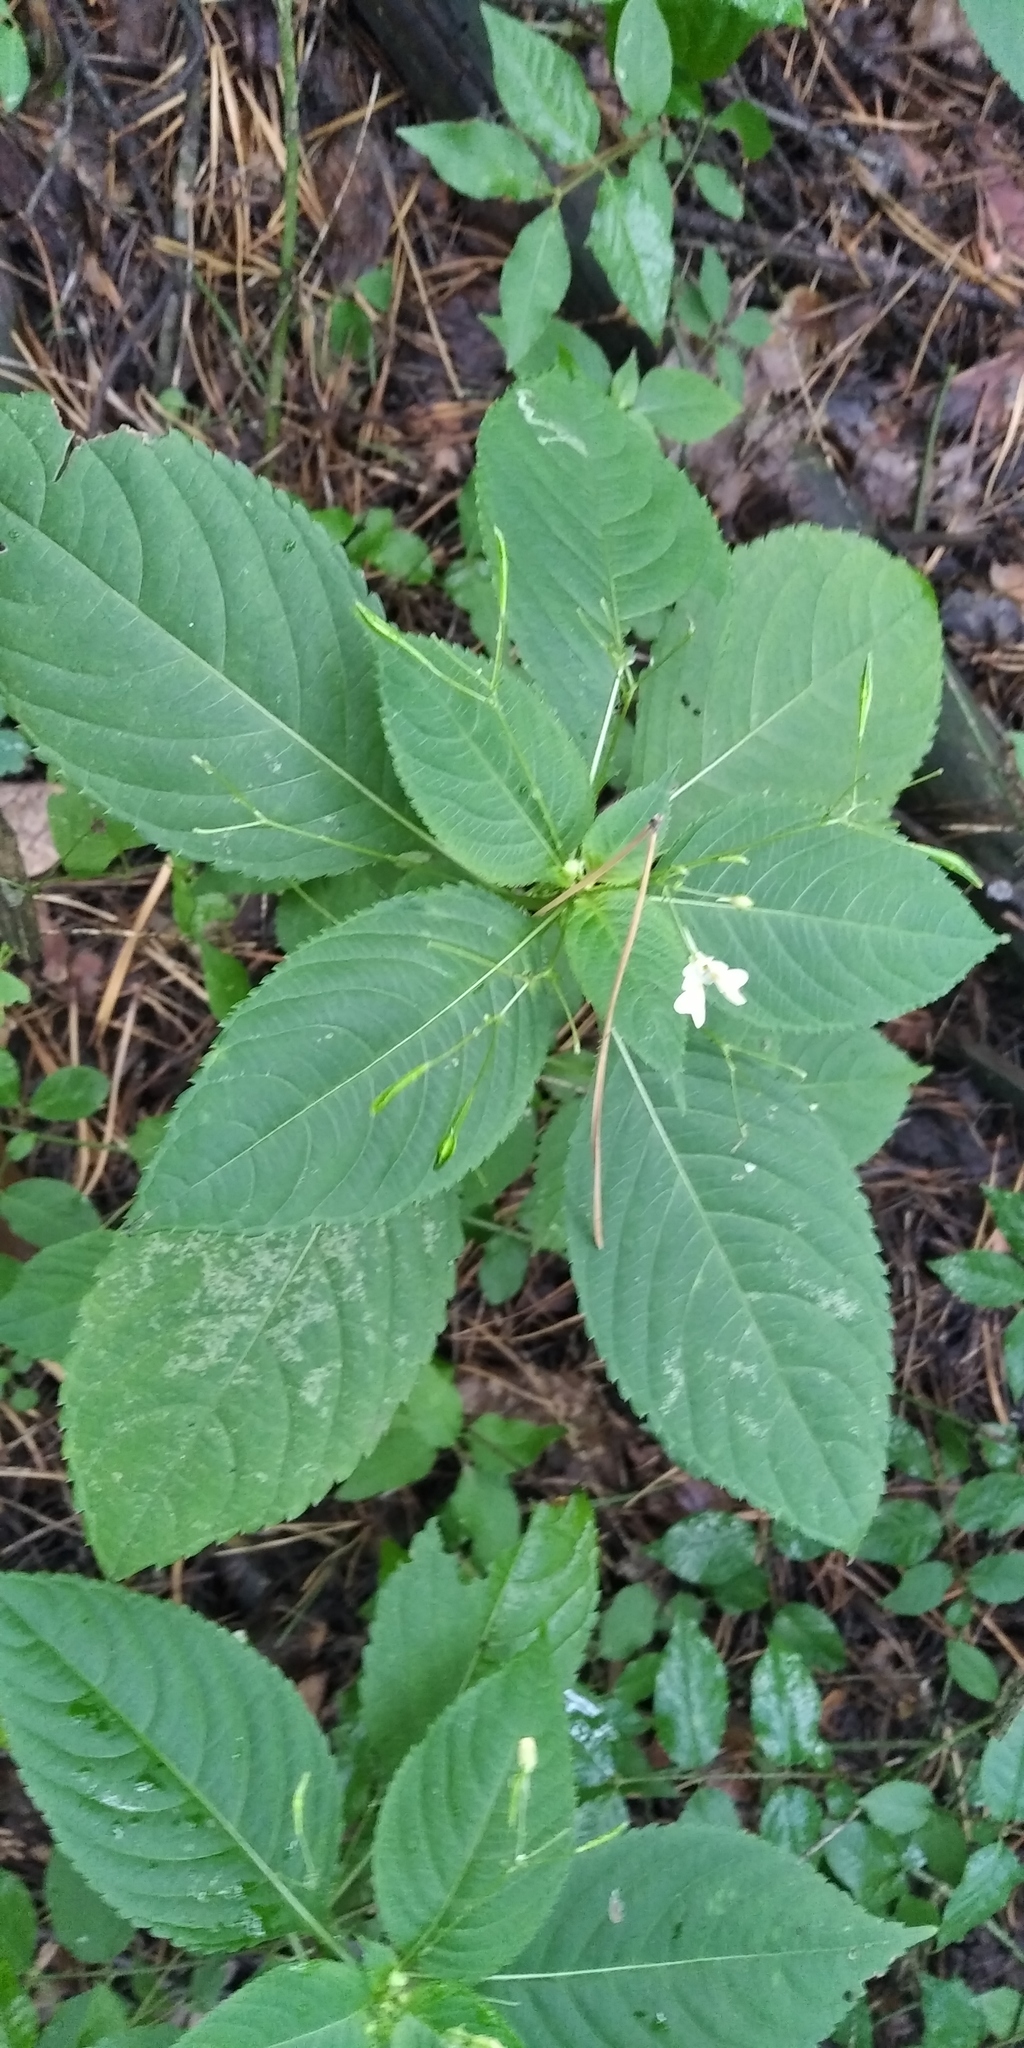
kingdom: Plantae
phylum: Tracheophyta
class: Magnoliopsida
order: Ericales
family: Balsaminaceae
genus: Impatiens
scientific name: Impatiens parviflora
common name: Small balsam
